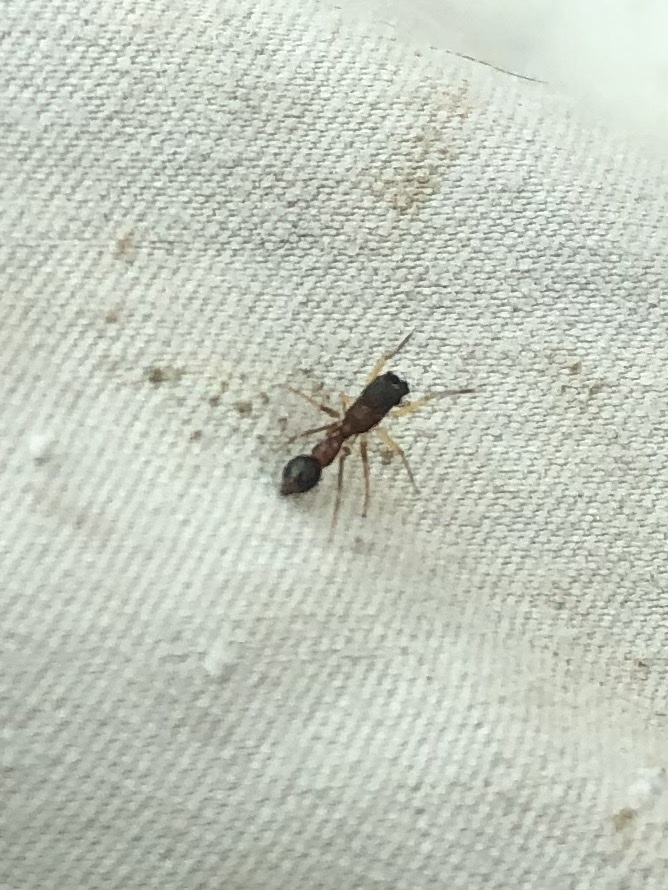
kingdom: Animalia
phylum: Arthropoda
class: Arachnida
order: Araneae
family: Salticidae
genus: Synemosyna
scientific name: Synemosyna formica
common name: Slender ant-mimic jumping spider
